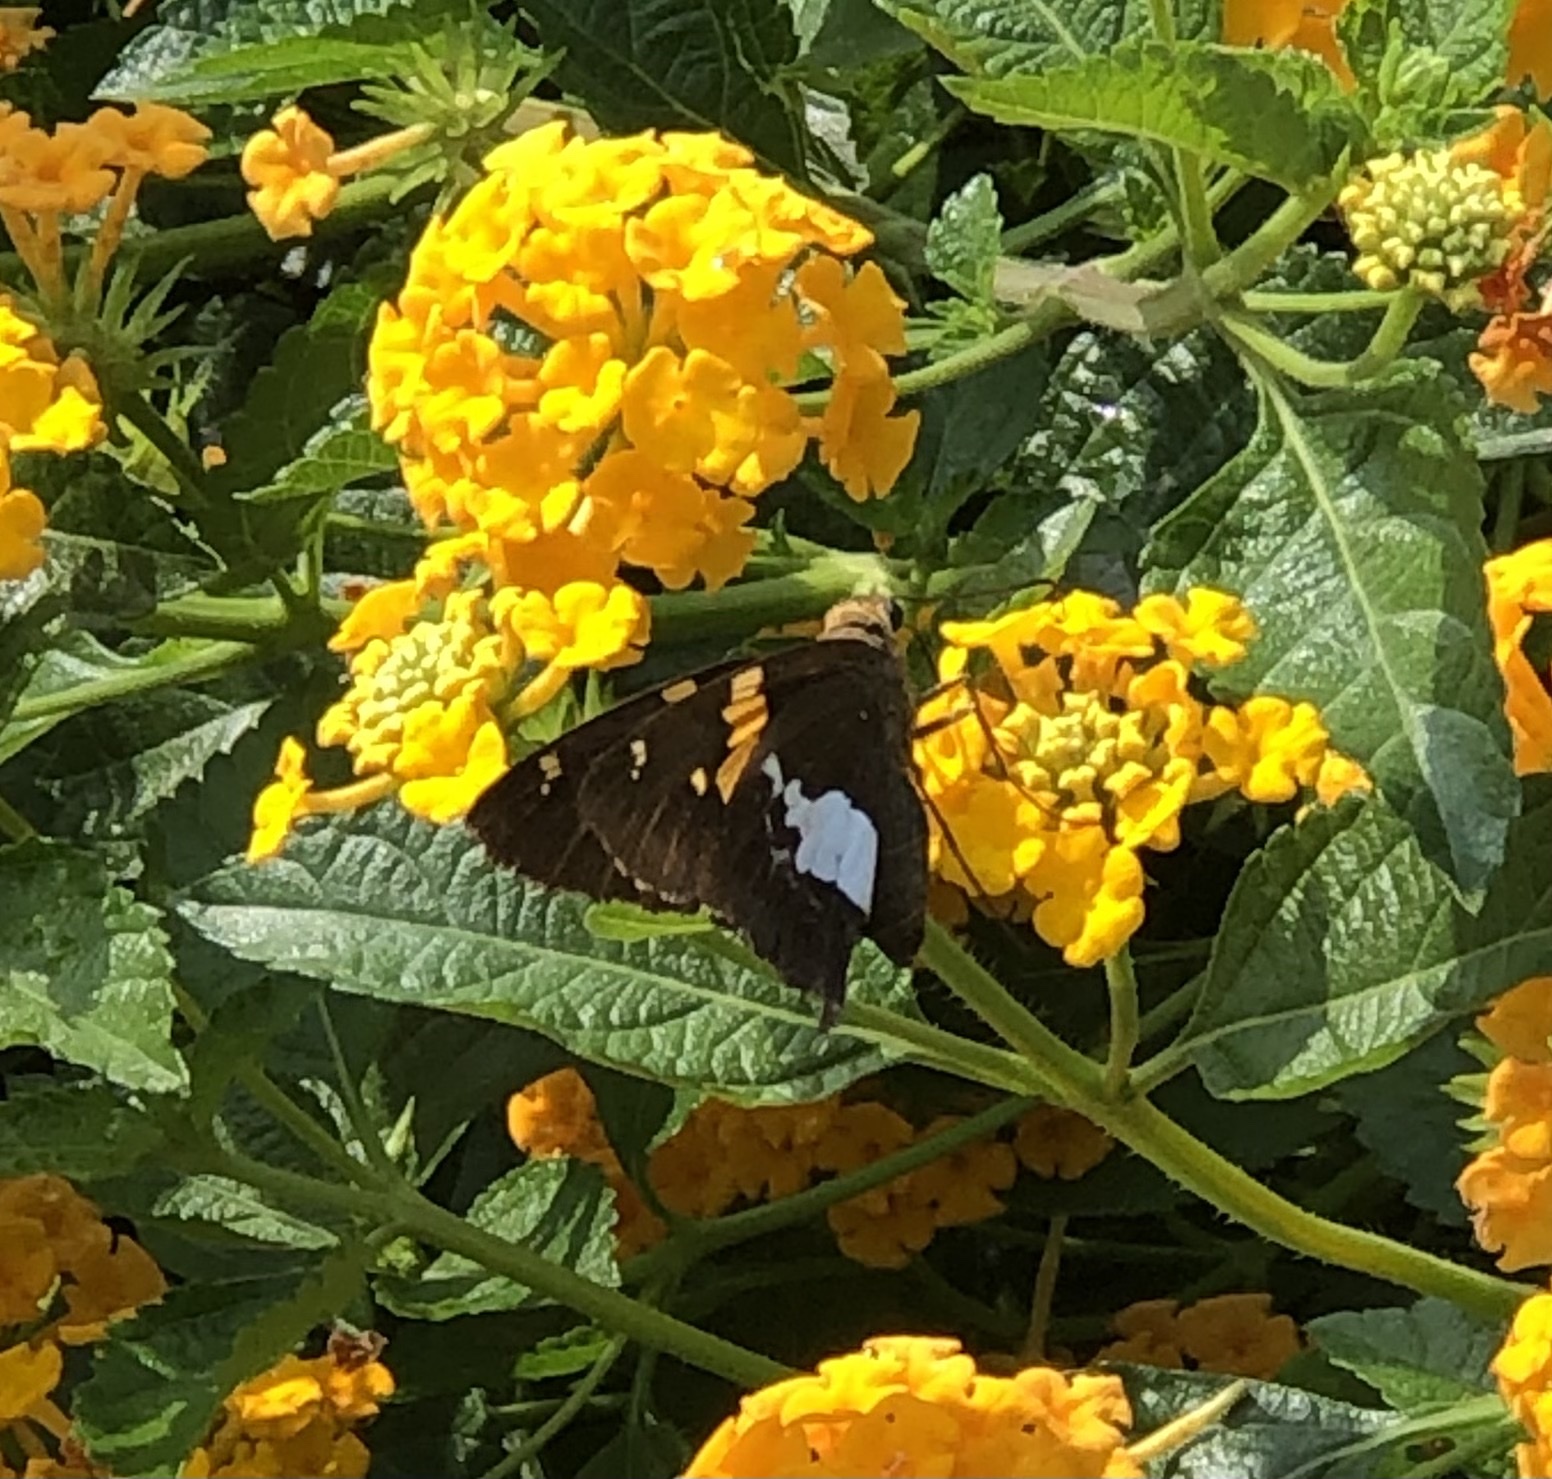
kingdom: Animalia
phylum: Arthropoda
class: Insecta
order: Lepidoptera
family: Hesperiidae
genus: Epargyreus
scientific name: Epargyreus clarus
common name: Silver-spotted skipper
